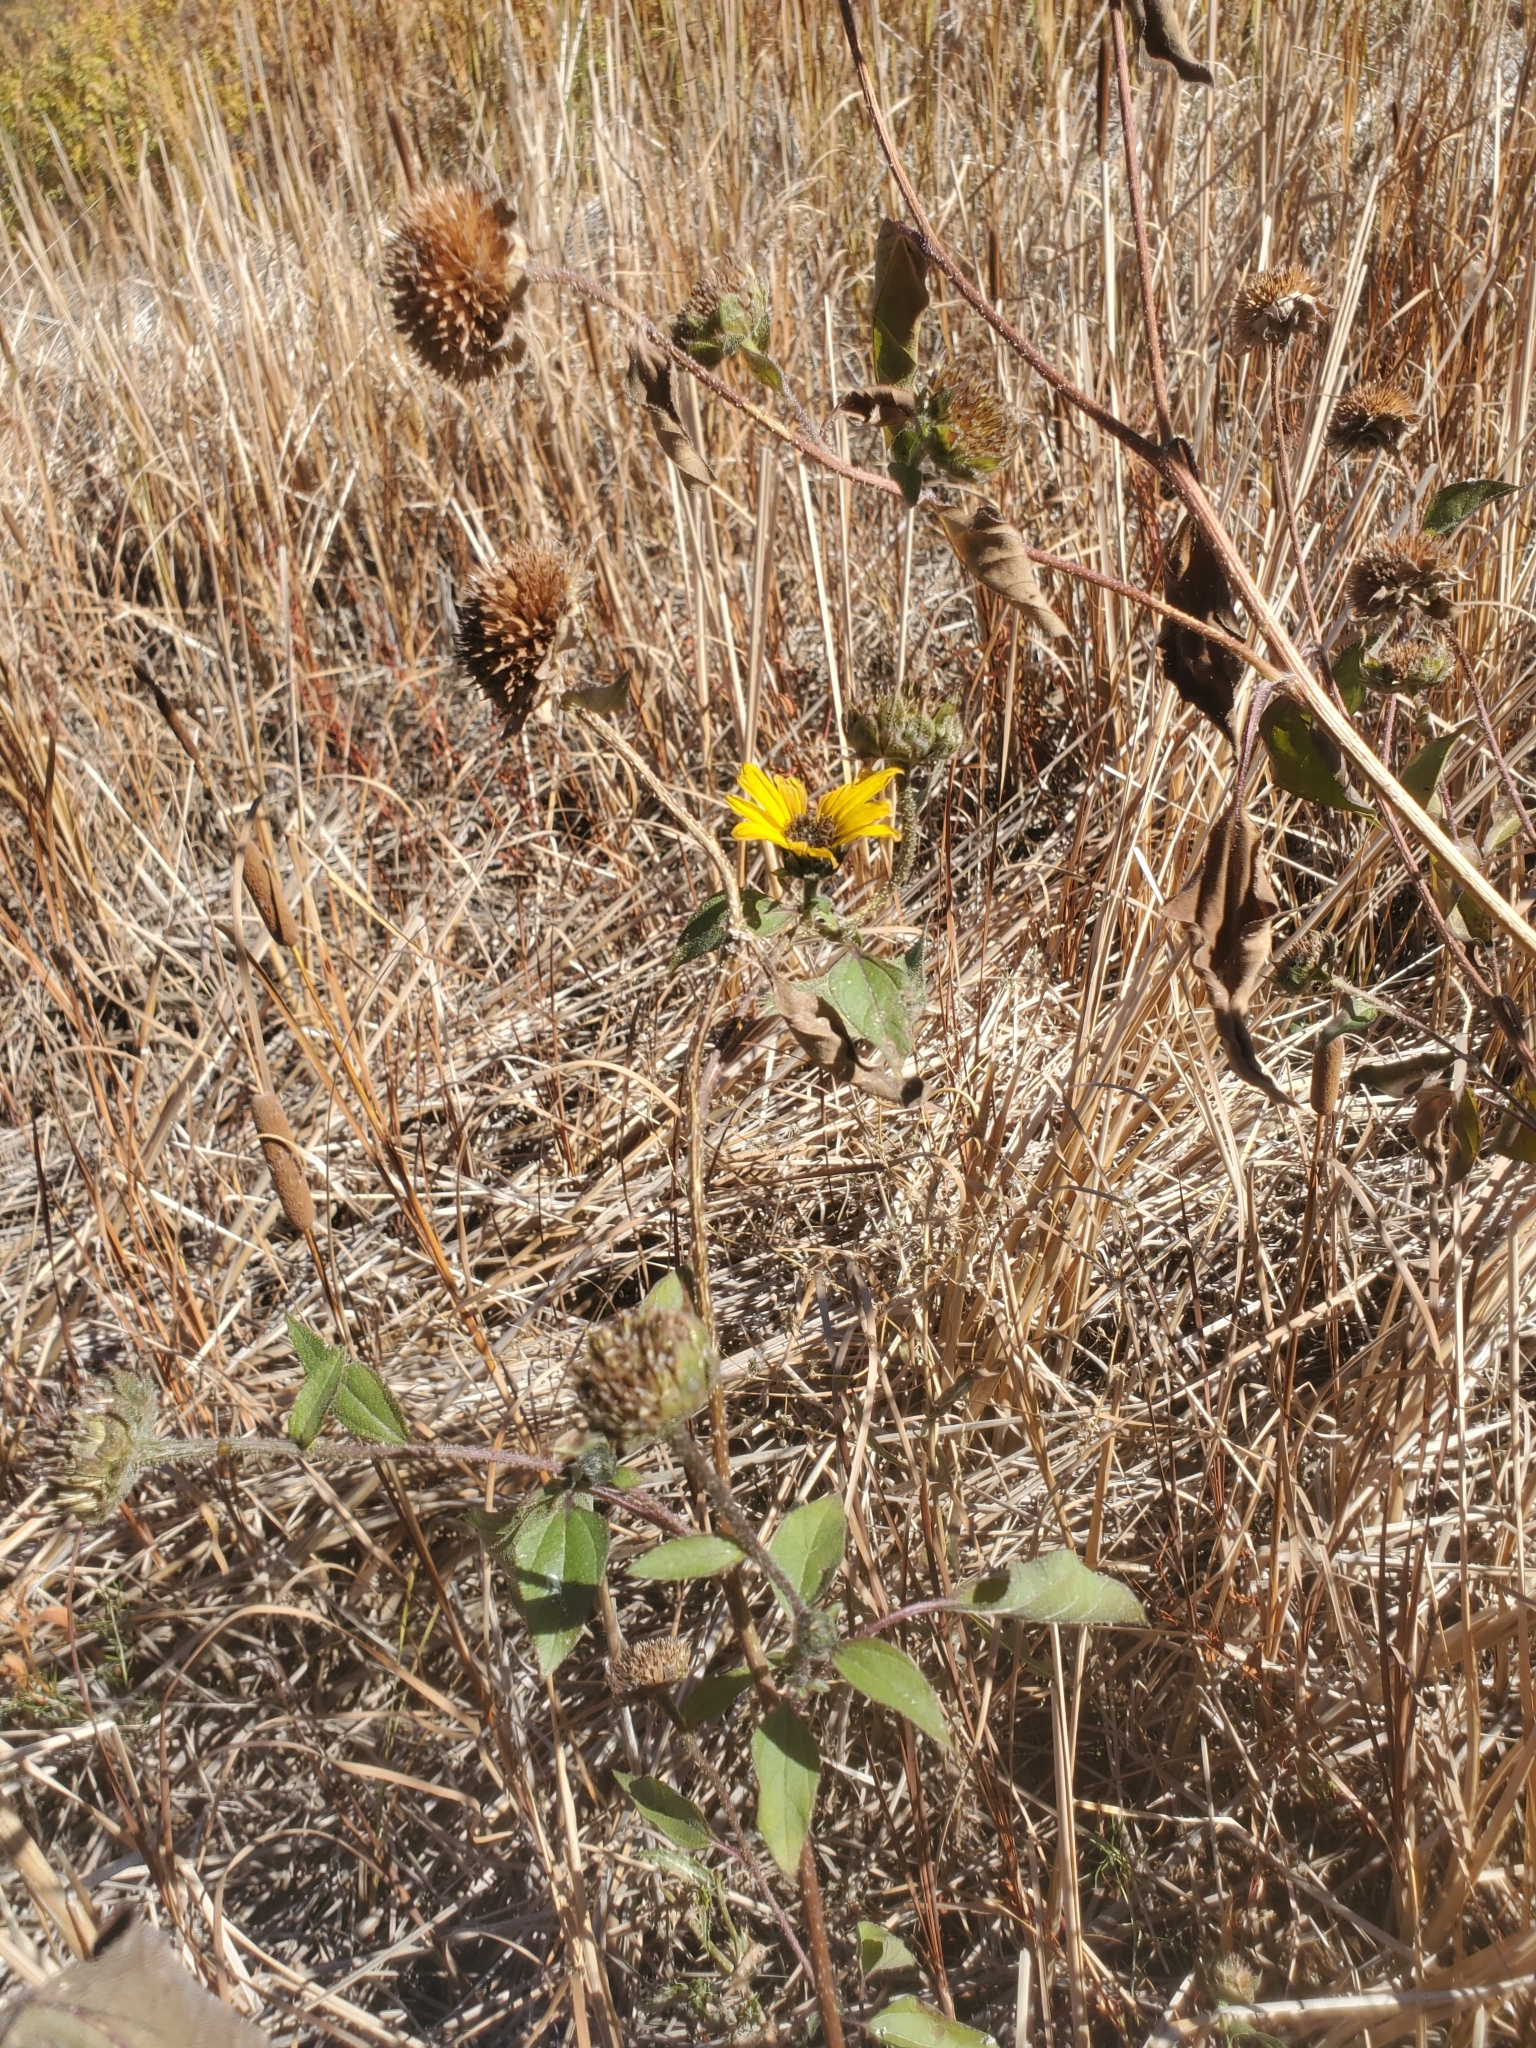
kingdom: Plantae
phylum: Tracheophyta
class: Magnoliopsida
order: Asterales
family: Asteraceae
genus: Helianthus
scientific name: Helianthus annuus
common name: Sunflower
